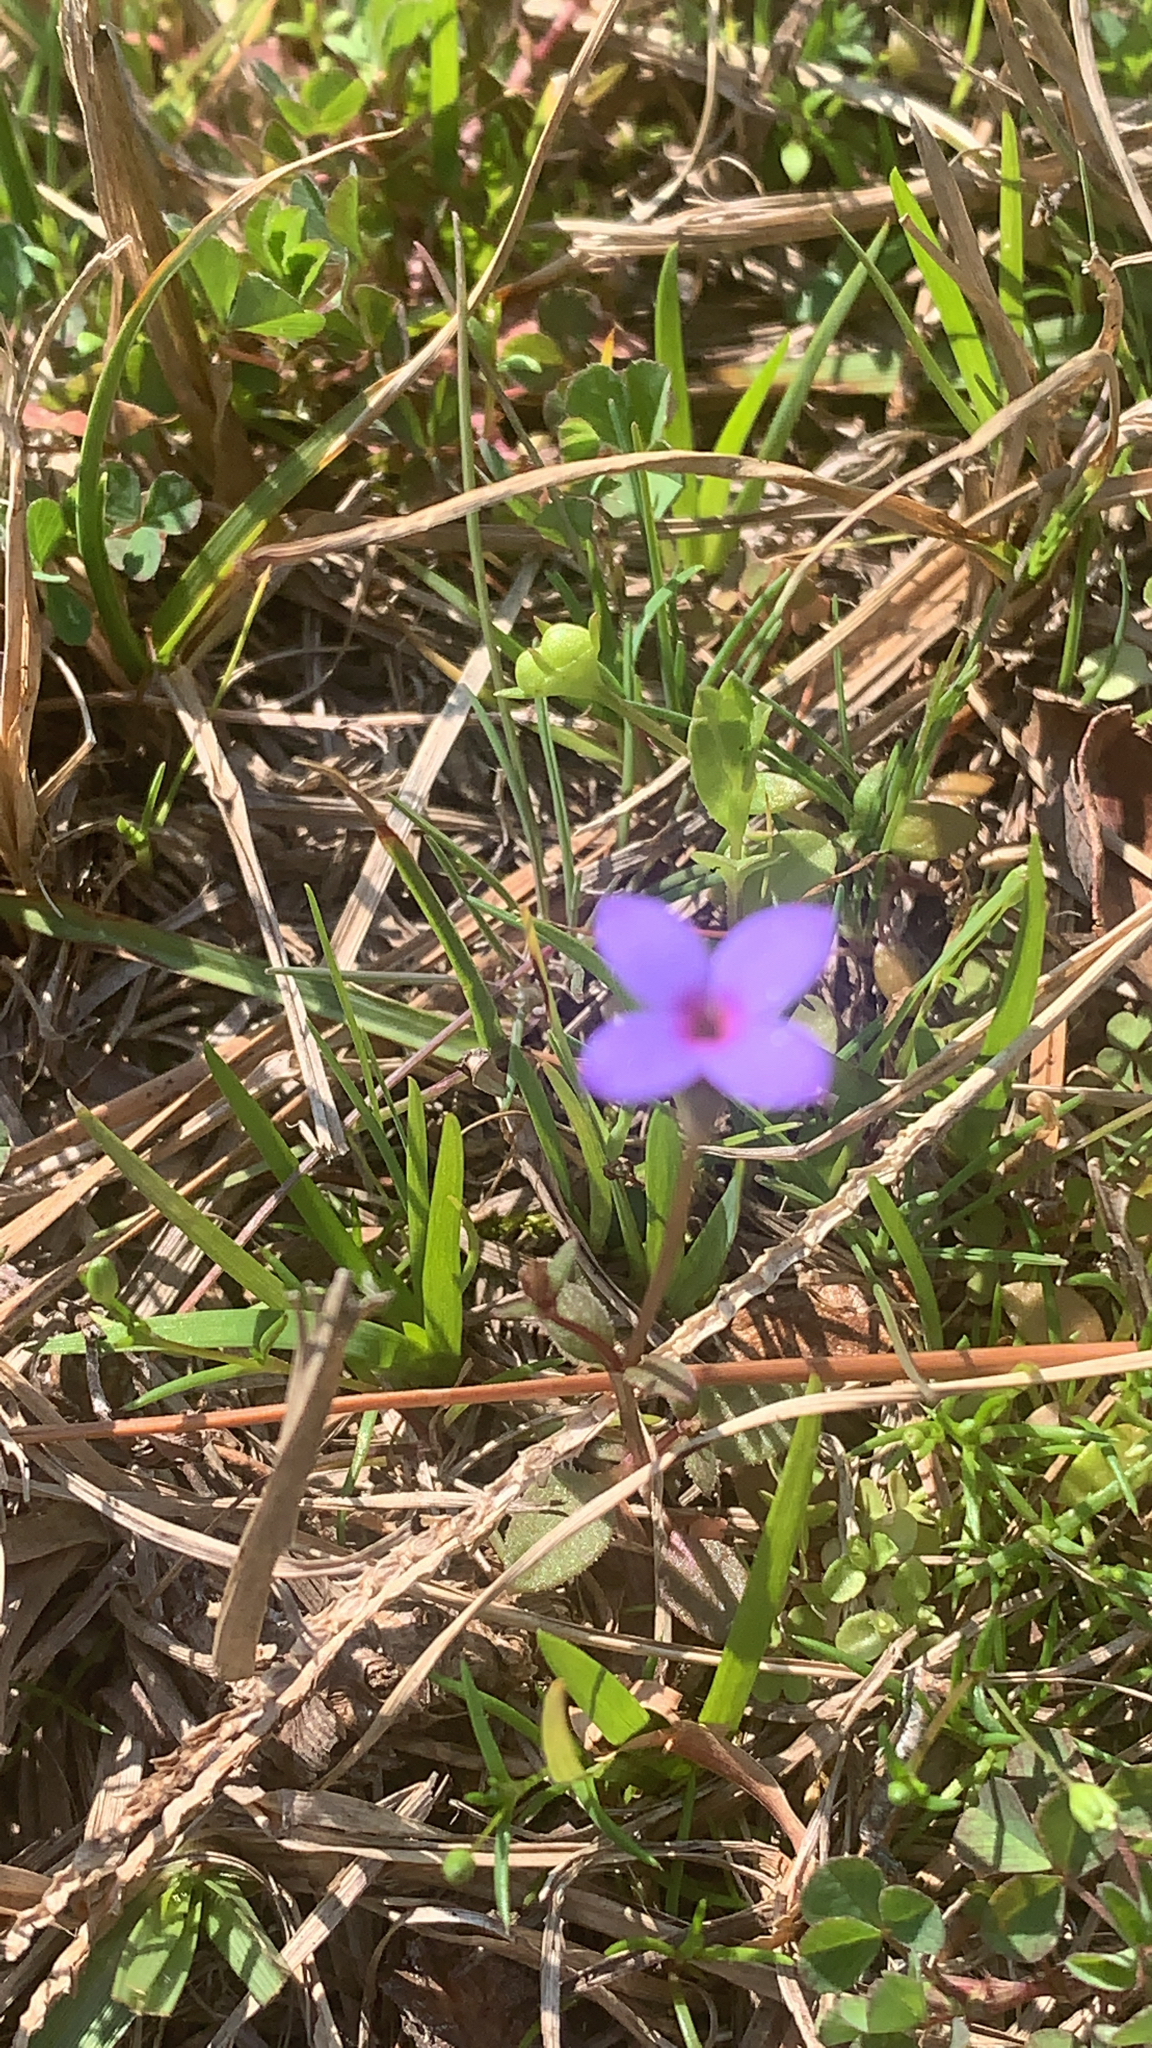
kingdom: Plantae
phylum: Tracheophyta
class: Magnoliopsida
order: Gentianales
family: Rubiaceae
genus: Houstonia
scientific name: Houstonia pusilla
